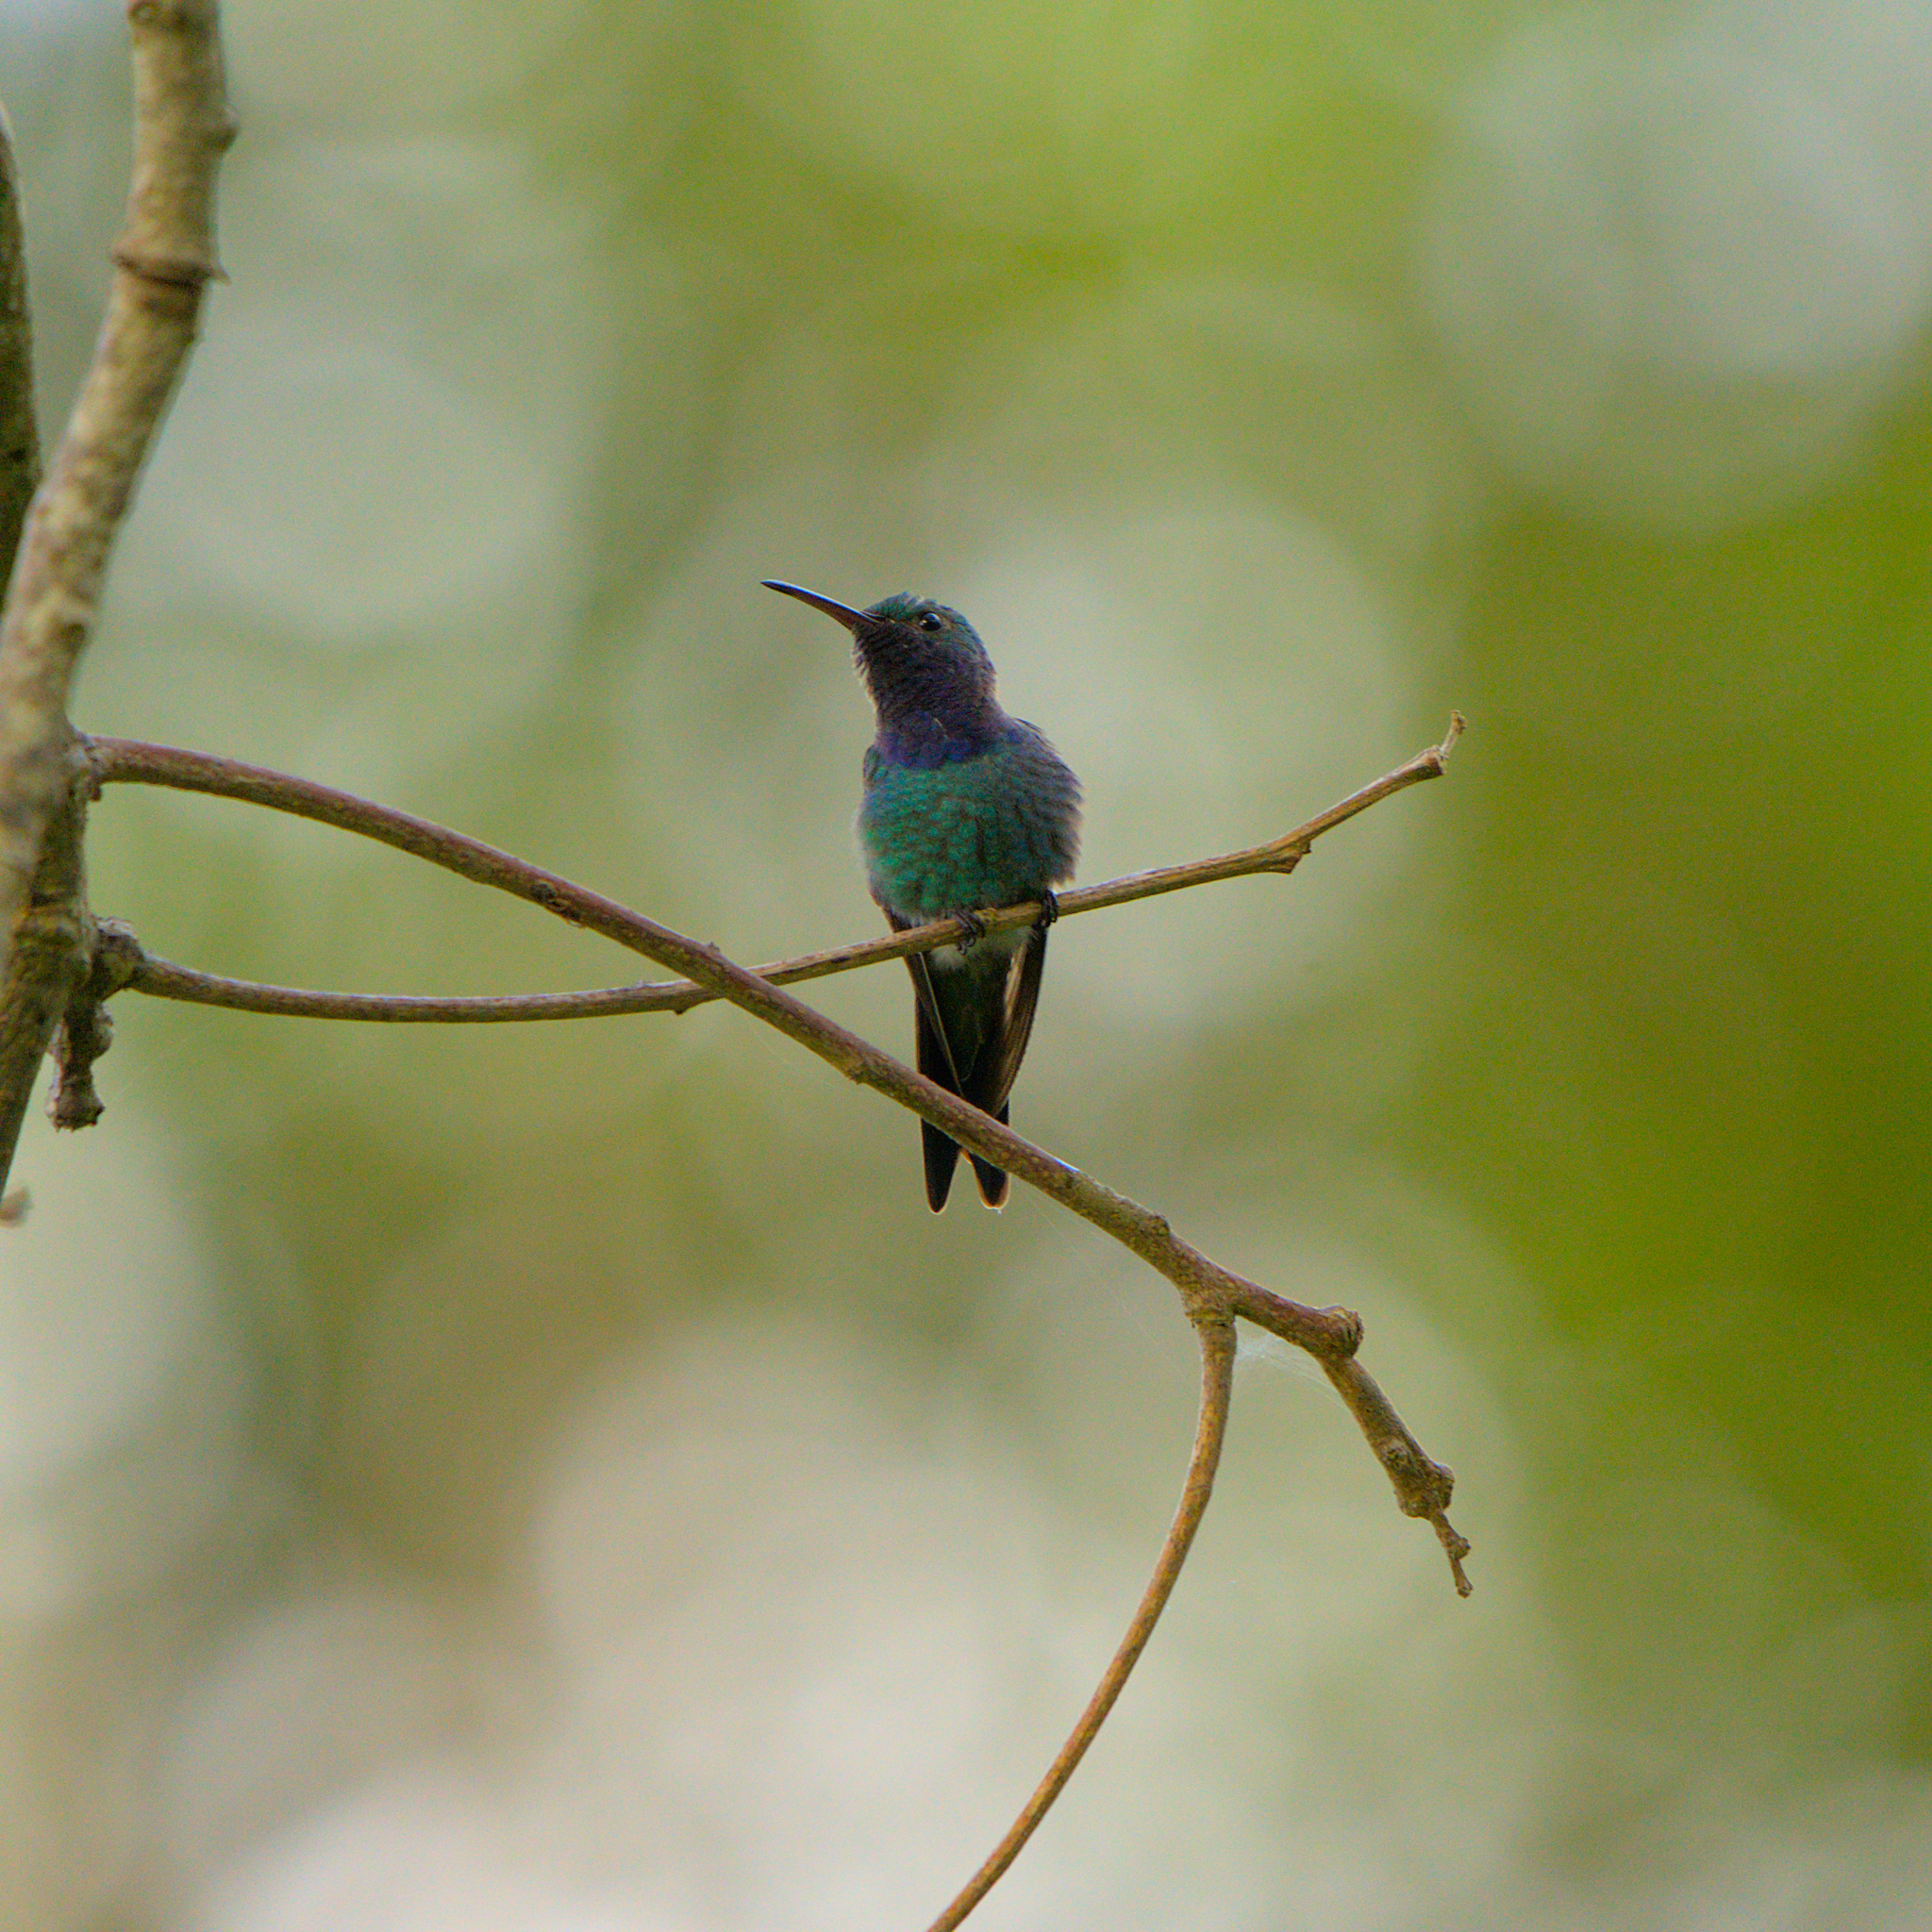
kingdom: Animalia
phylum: Chordata
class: Aves
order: Apodiformes
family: Trochilidae
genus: Chrysuronia
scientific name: Chrysuronia coeruleogularis
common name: Sapphire-throated hummingbird
